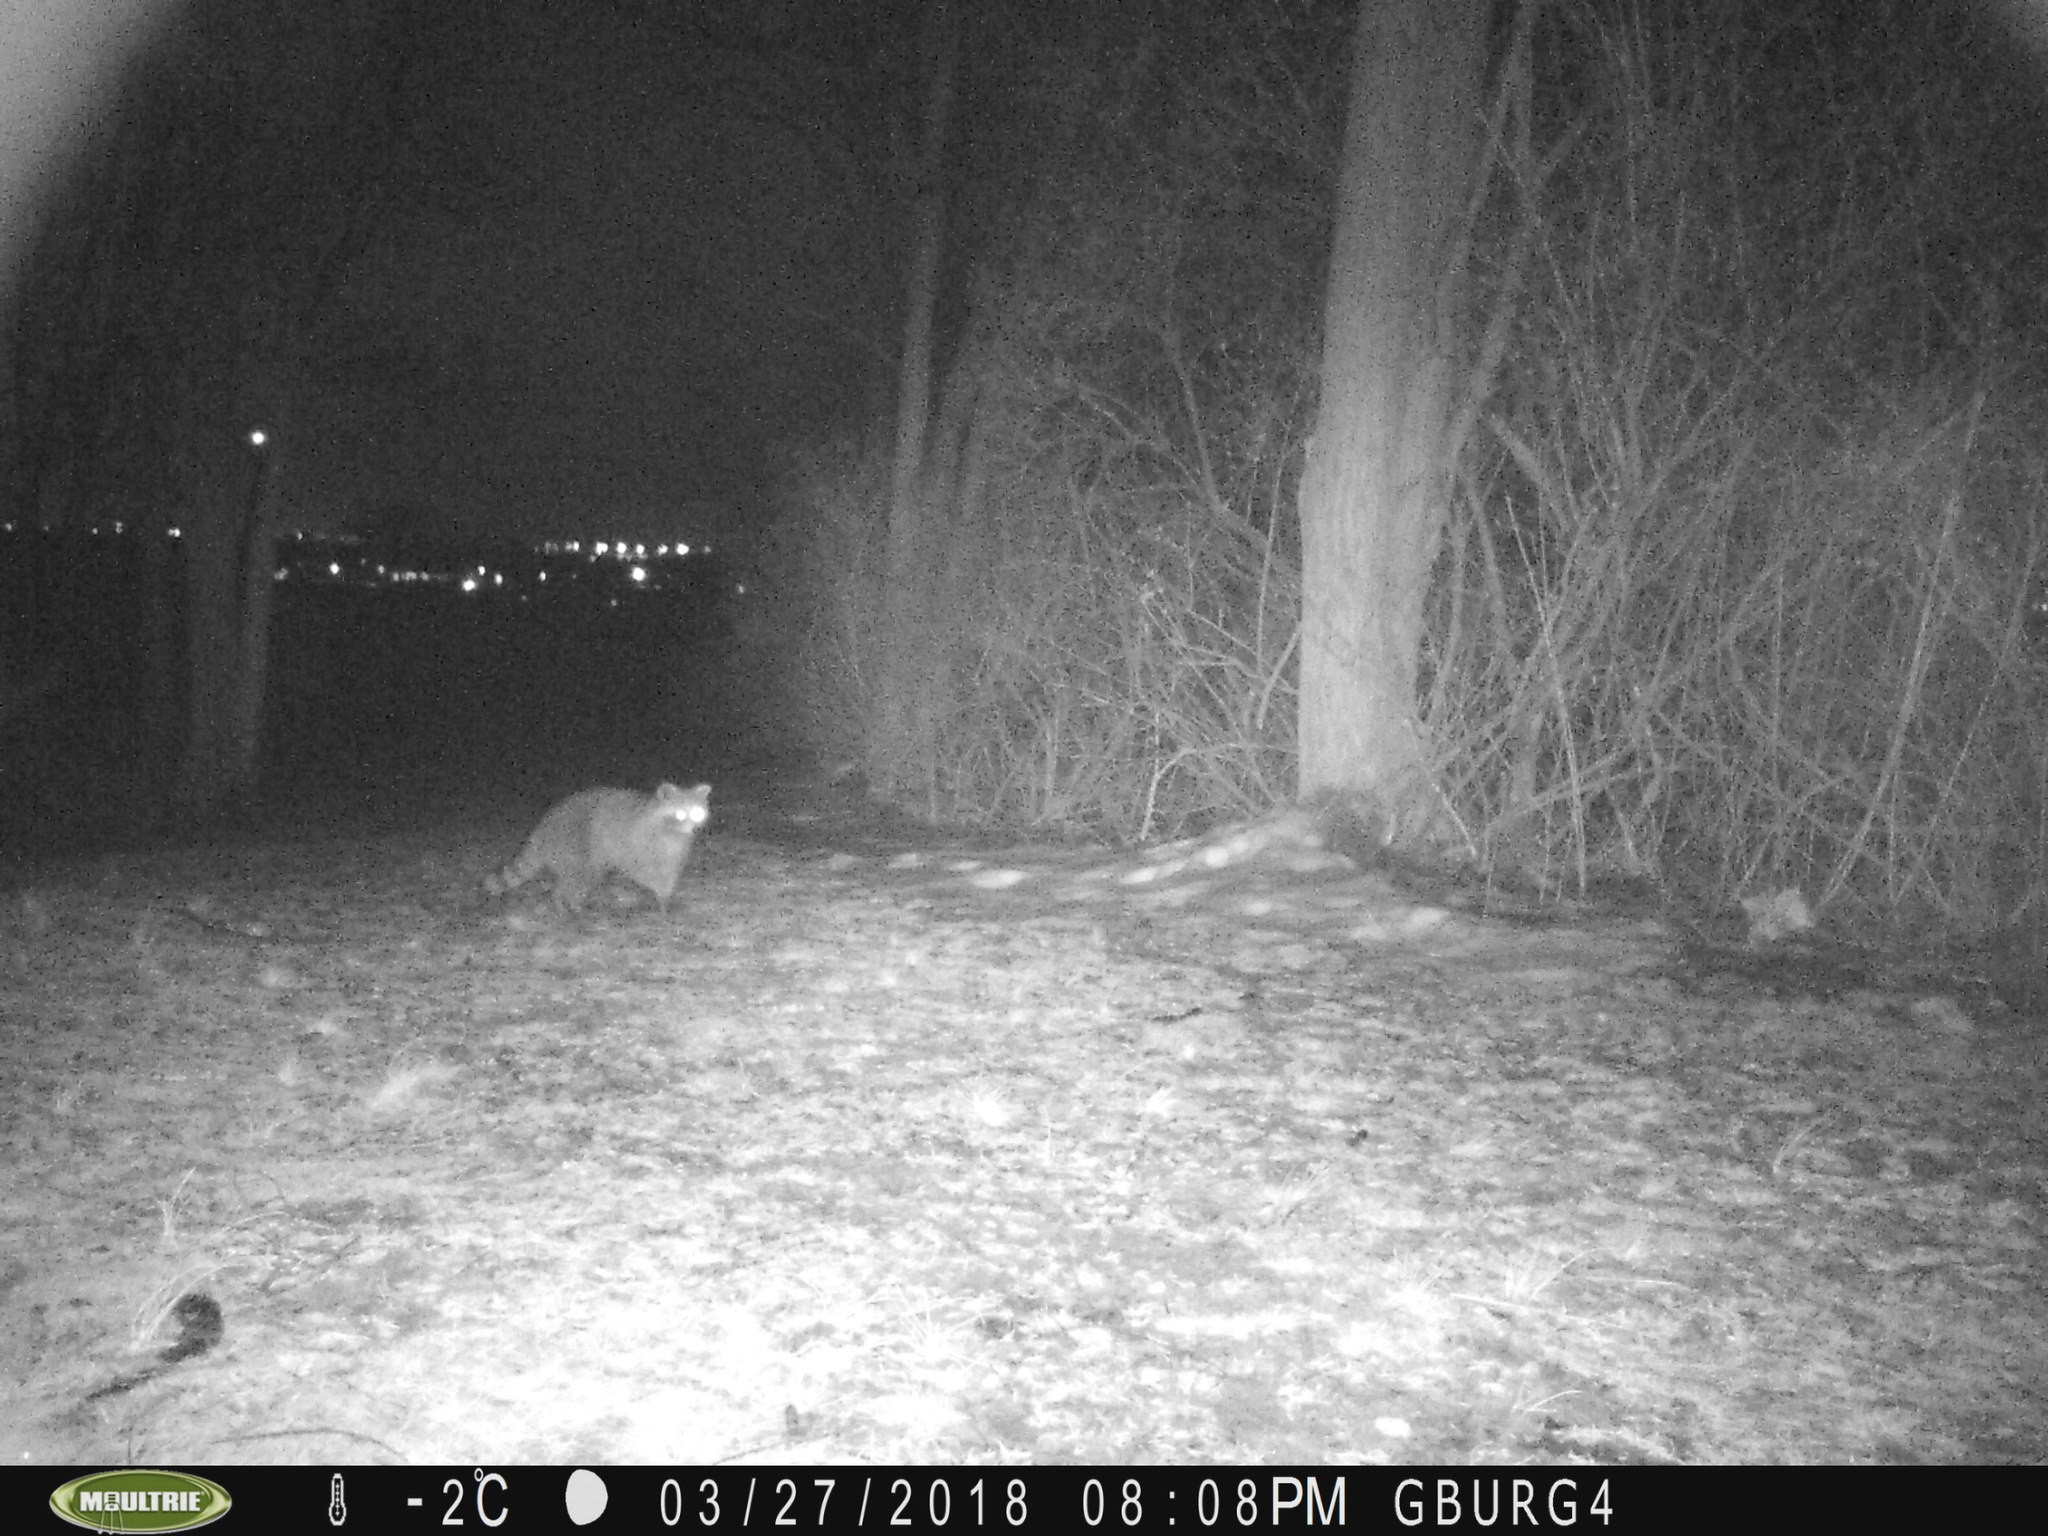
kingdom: Animalia
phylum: Chordata
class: Mammalia
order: Carnivora
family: Procyonidae
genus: Procyon
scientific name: Procyon lotor
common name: Raccoon
